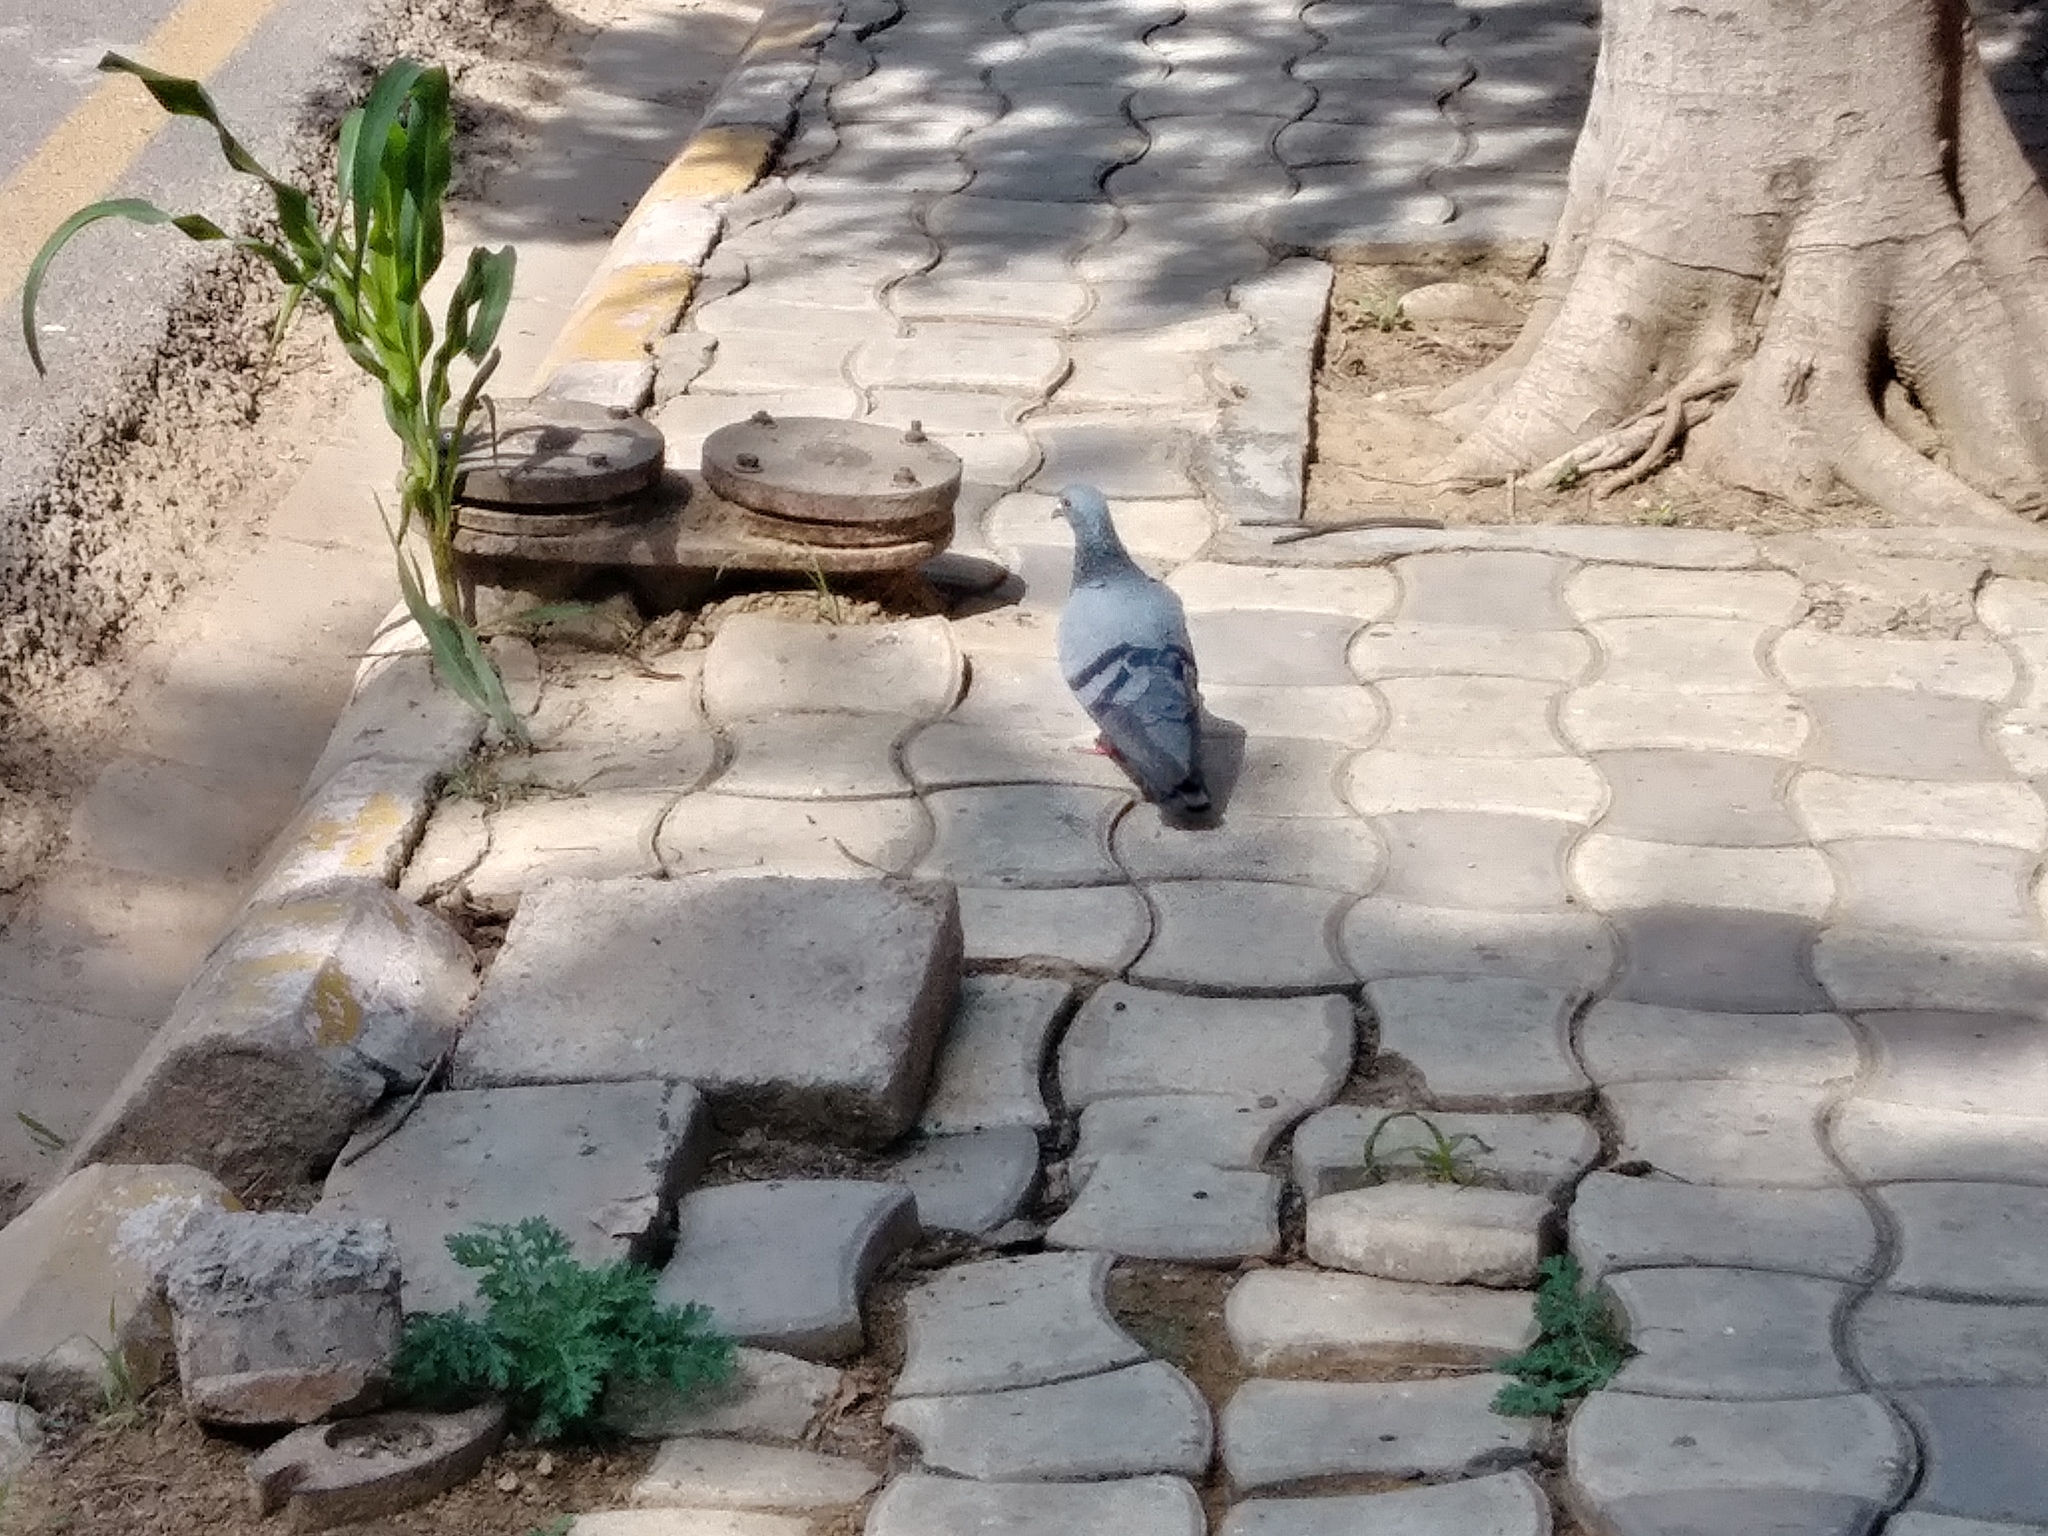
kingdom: Animalia
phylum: Chordata
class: Aves
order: Columbiformes
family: Columbidae
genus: Columba
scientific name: Columba livia
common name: Rock pigeon
